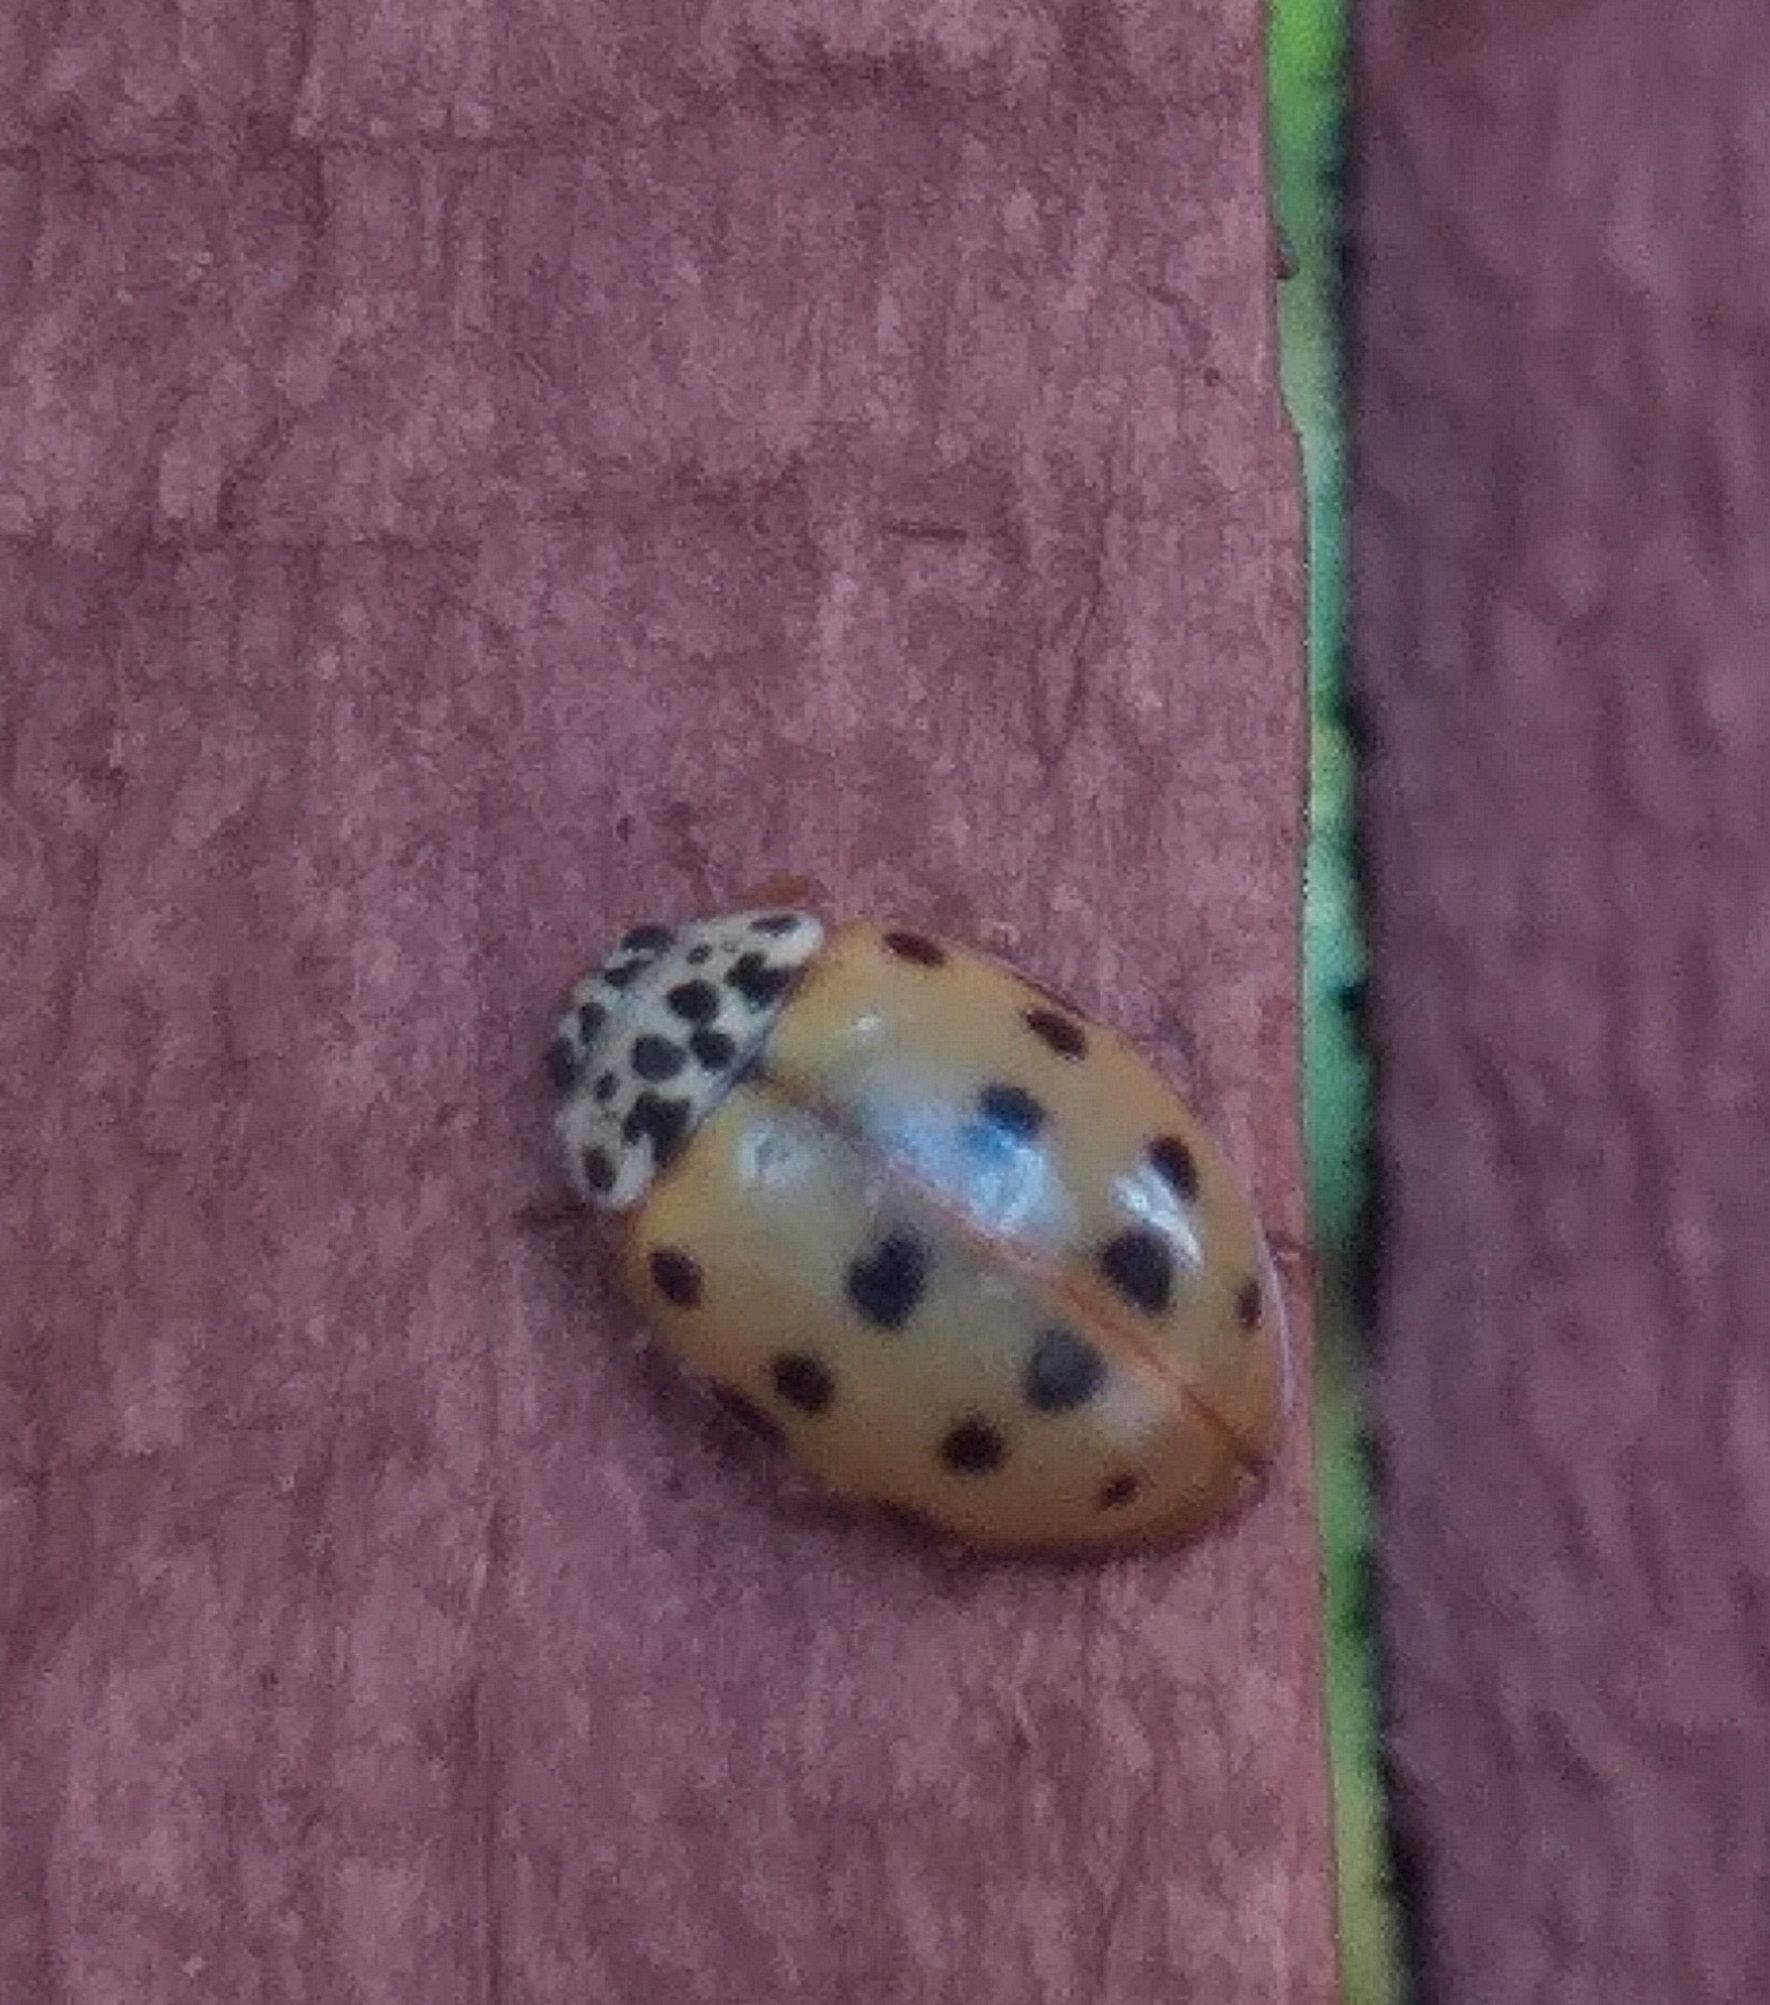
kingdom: Animalia
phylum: Arthropoda
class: Insecta
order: Coleoptera
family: Coccinellidae
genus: Harmonia
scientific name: Harmonia quadripunctata
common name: Cream-streaked ladybird
